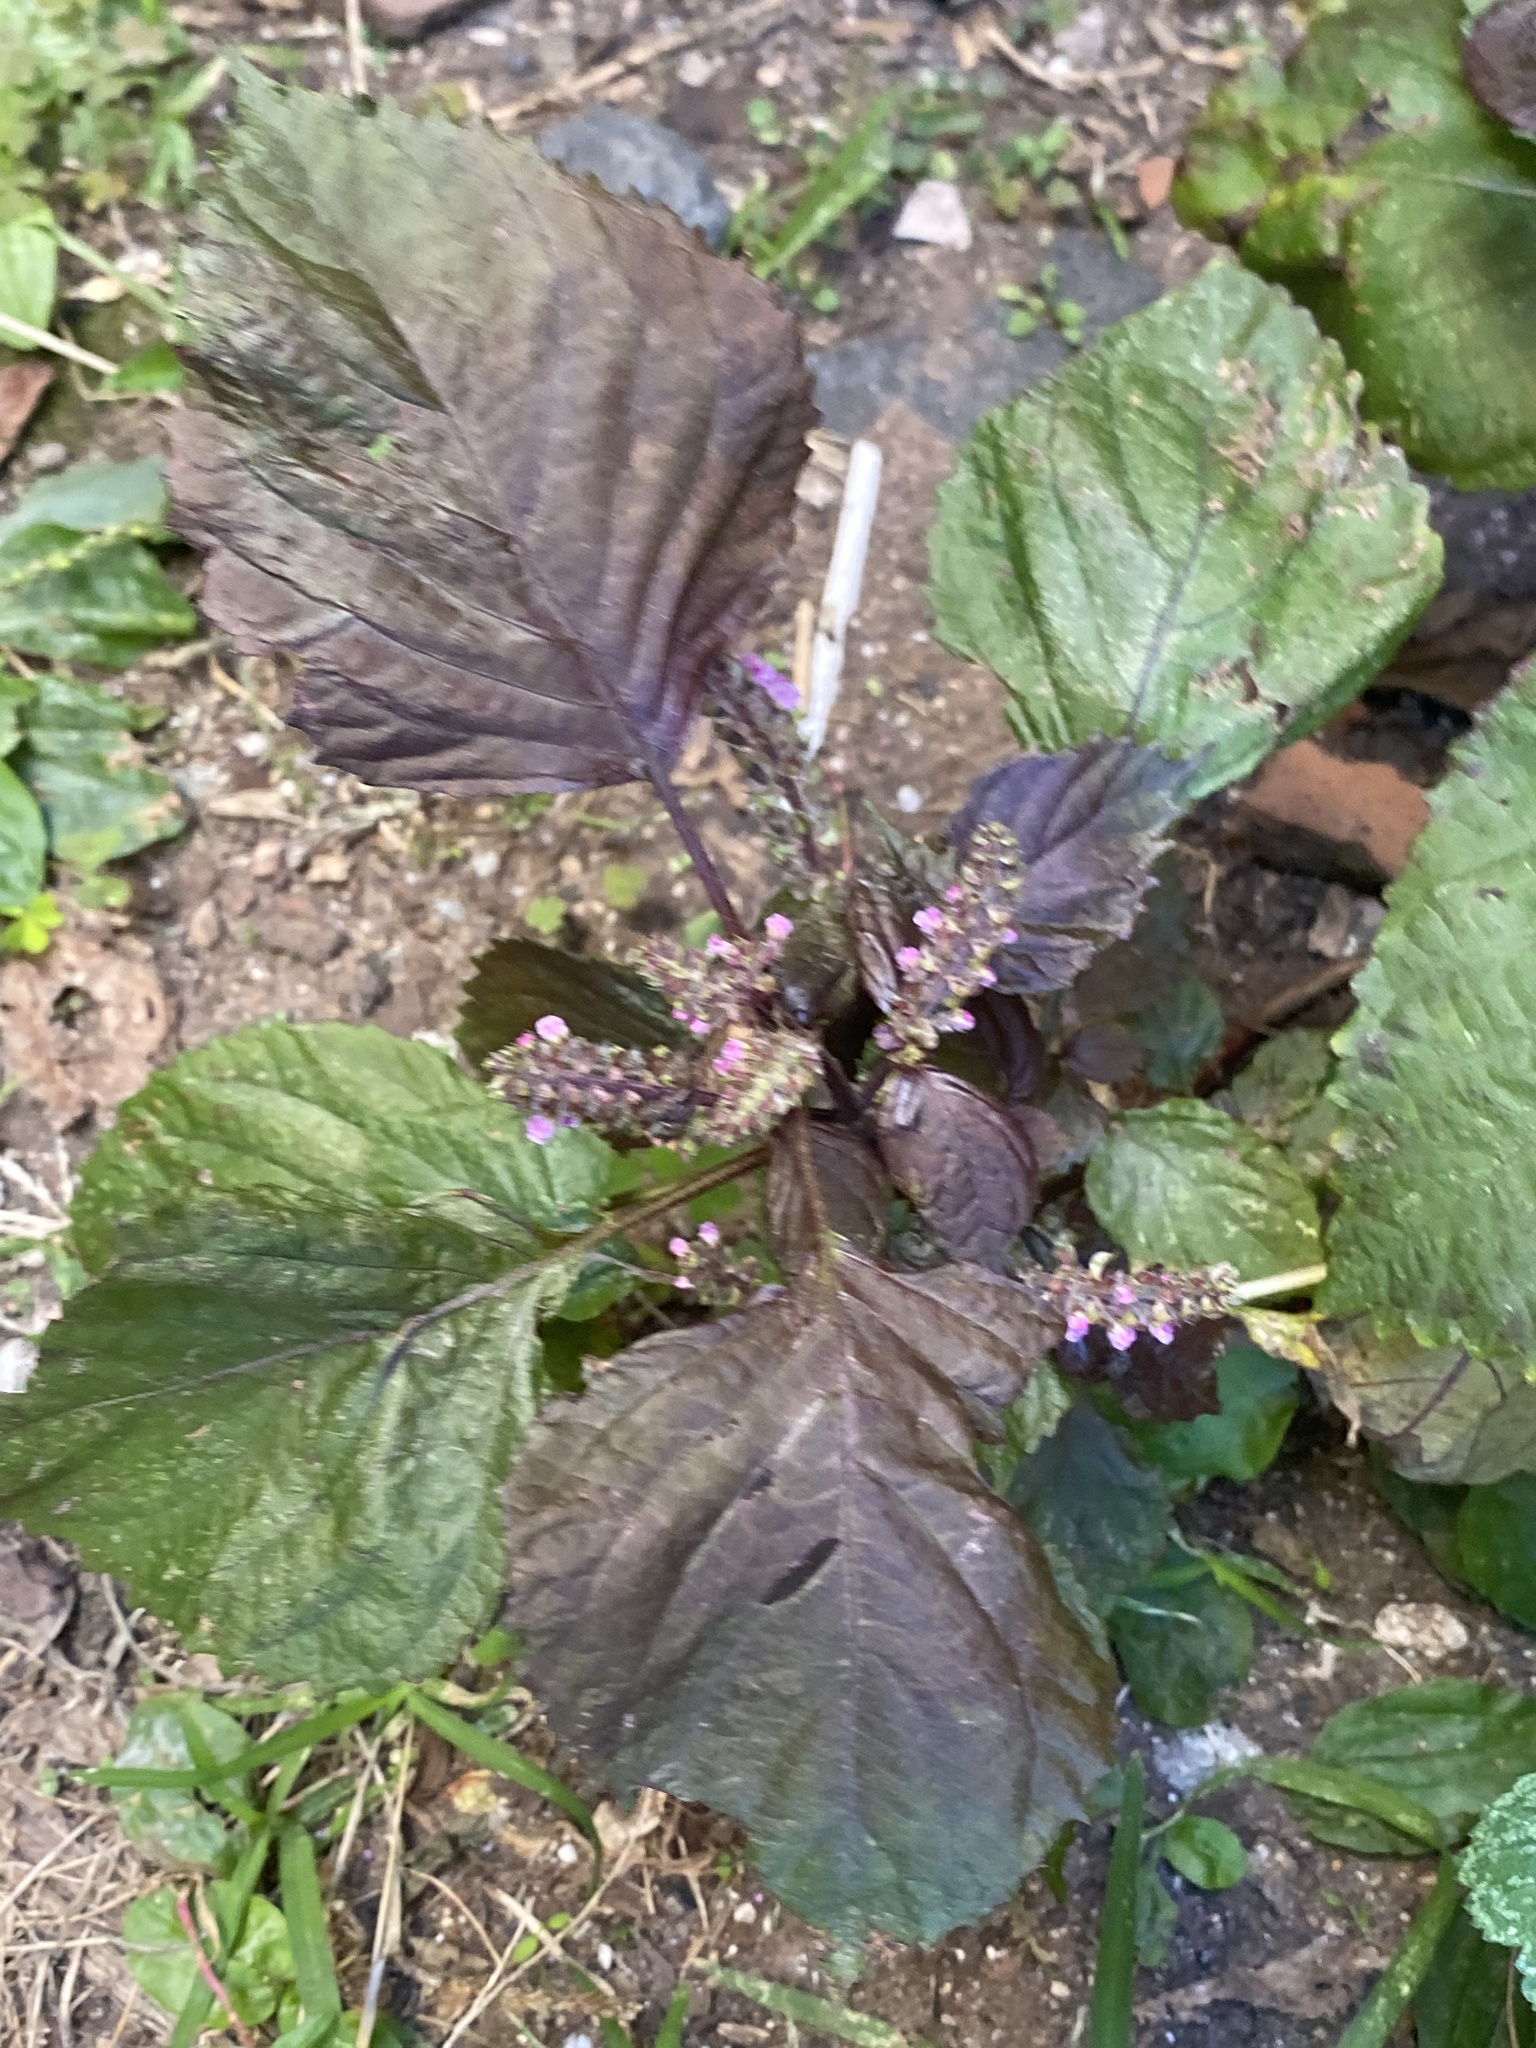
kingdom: Plantae
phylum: Tracheophyta
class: Magnoliopsida
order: Lamiales
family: Lamiaceae
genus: Perilla
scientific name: Perilla frutescens
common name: Perilla
